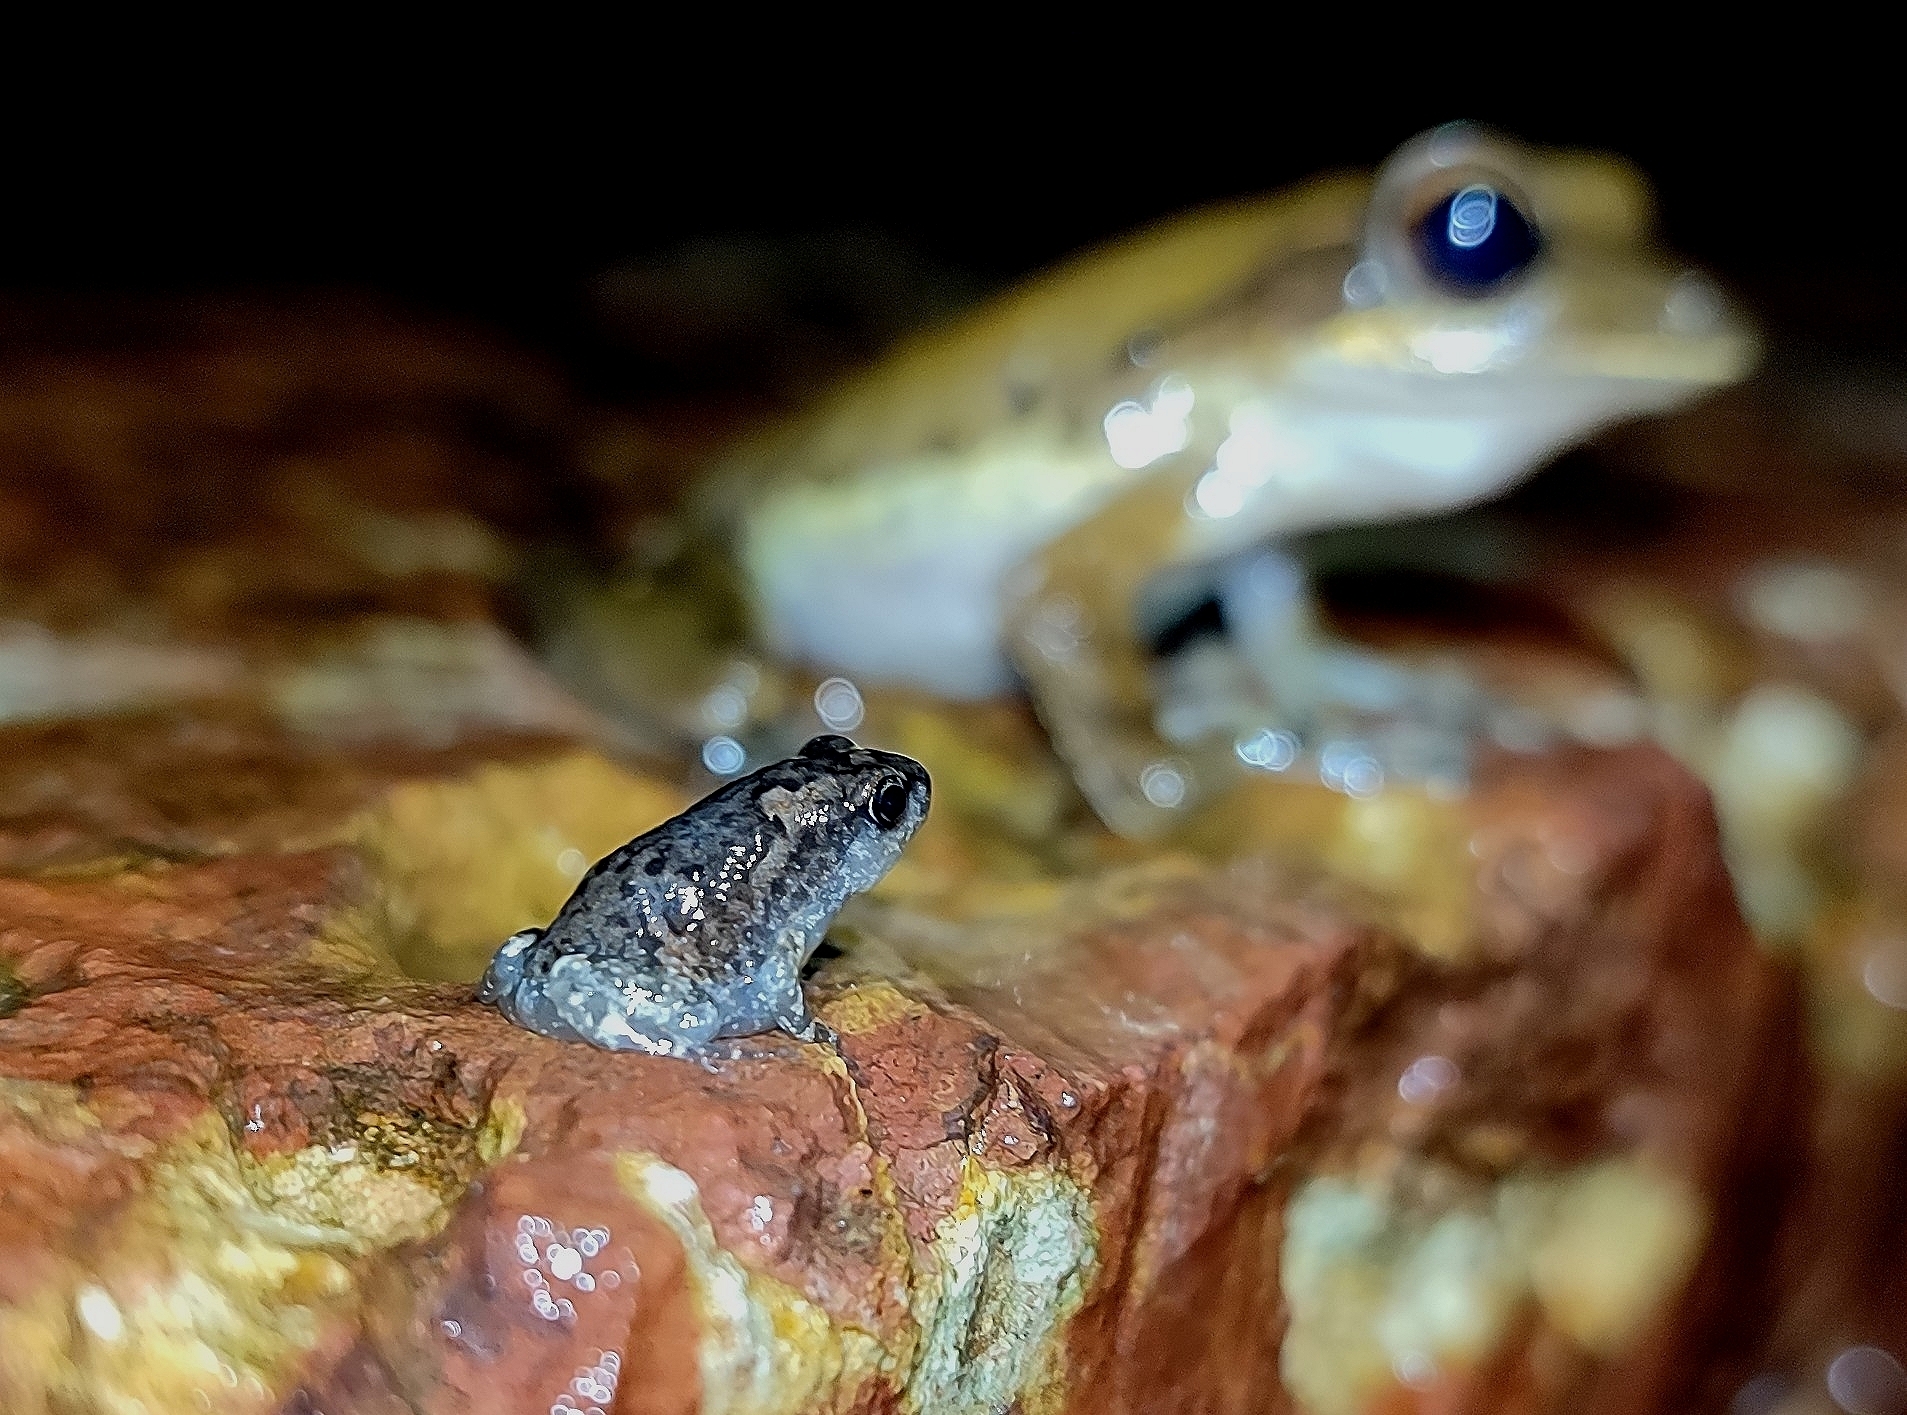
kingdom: Animalia
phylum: Chordata
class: Amphibia
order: Anura
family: Microhylidae
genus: Uperodon
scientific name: Uperodon taprobanicus
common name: Ceylon kaloula
